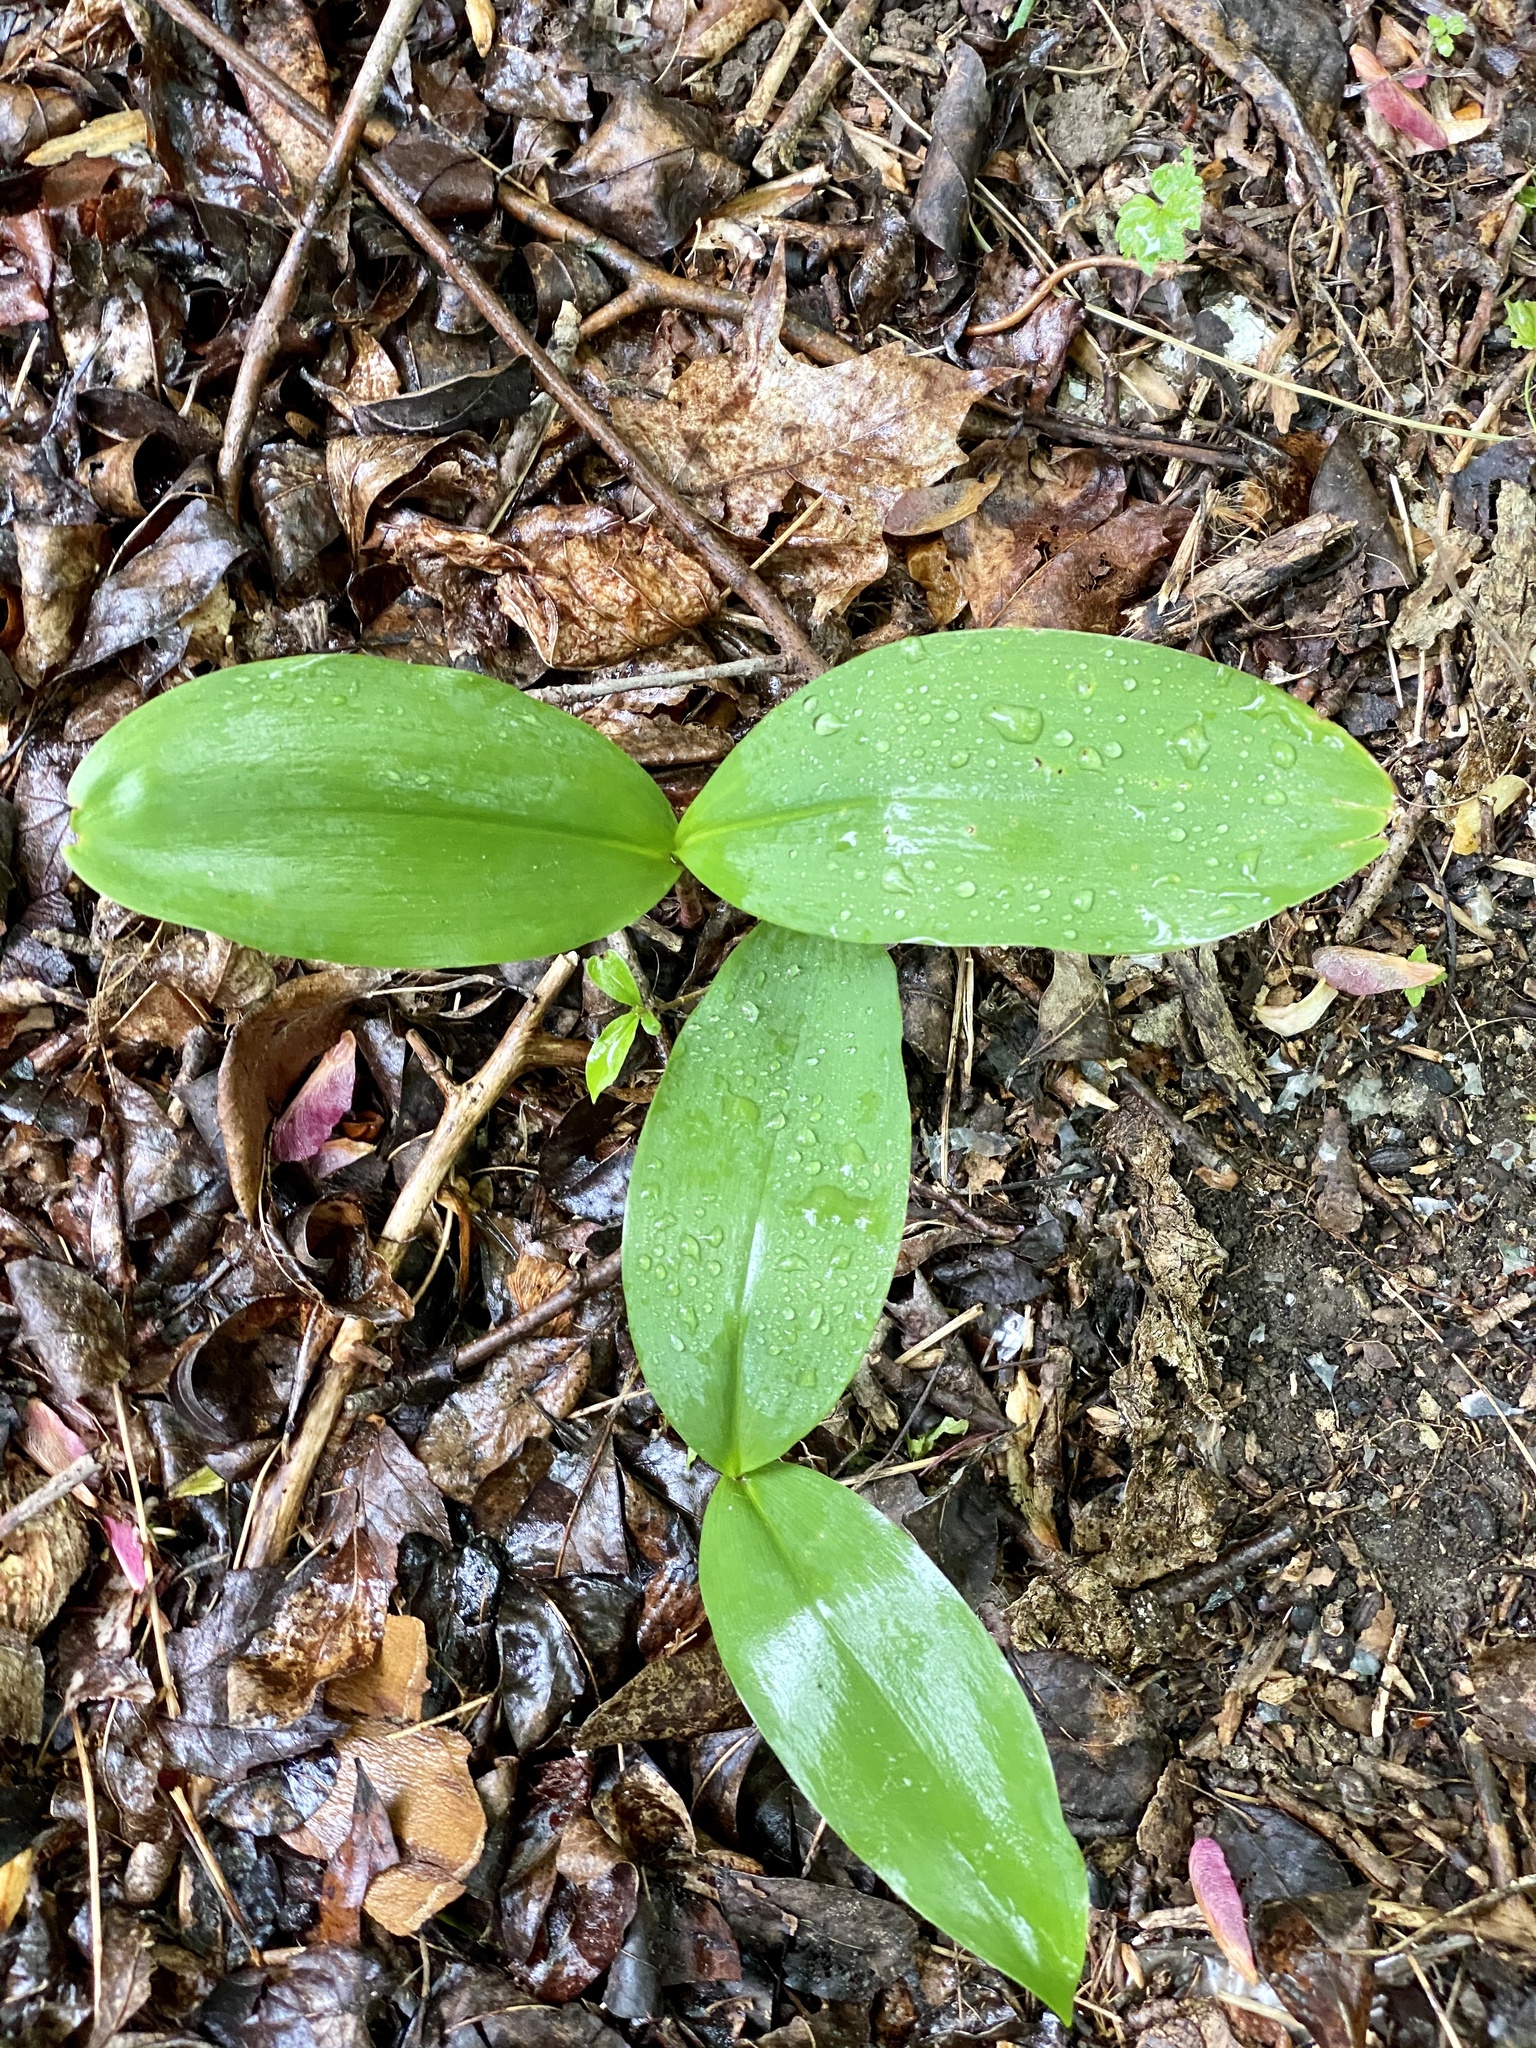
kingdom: Plantae
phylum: Tracheophyta
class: Liliopsida
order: Asparagales
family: Asparagaceae
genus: Convallaria
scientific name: Convallaria majalis
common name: Lily-of-the-valley
